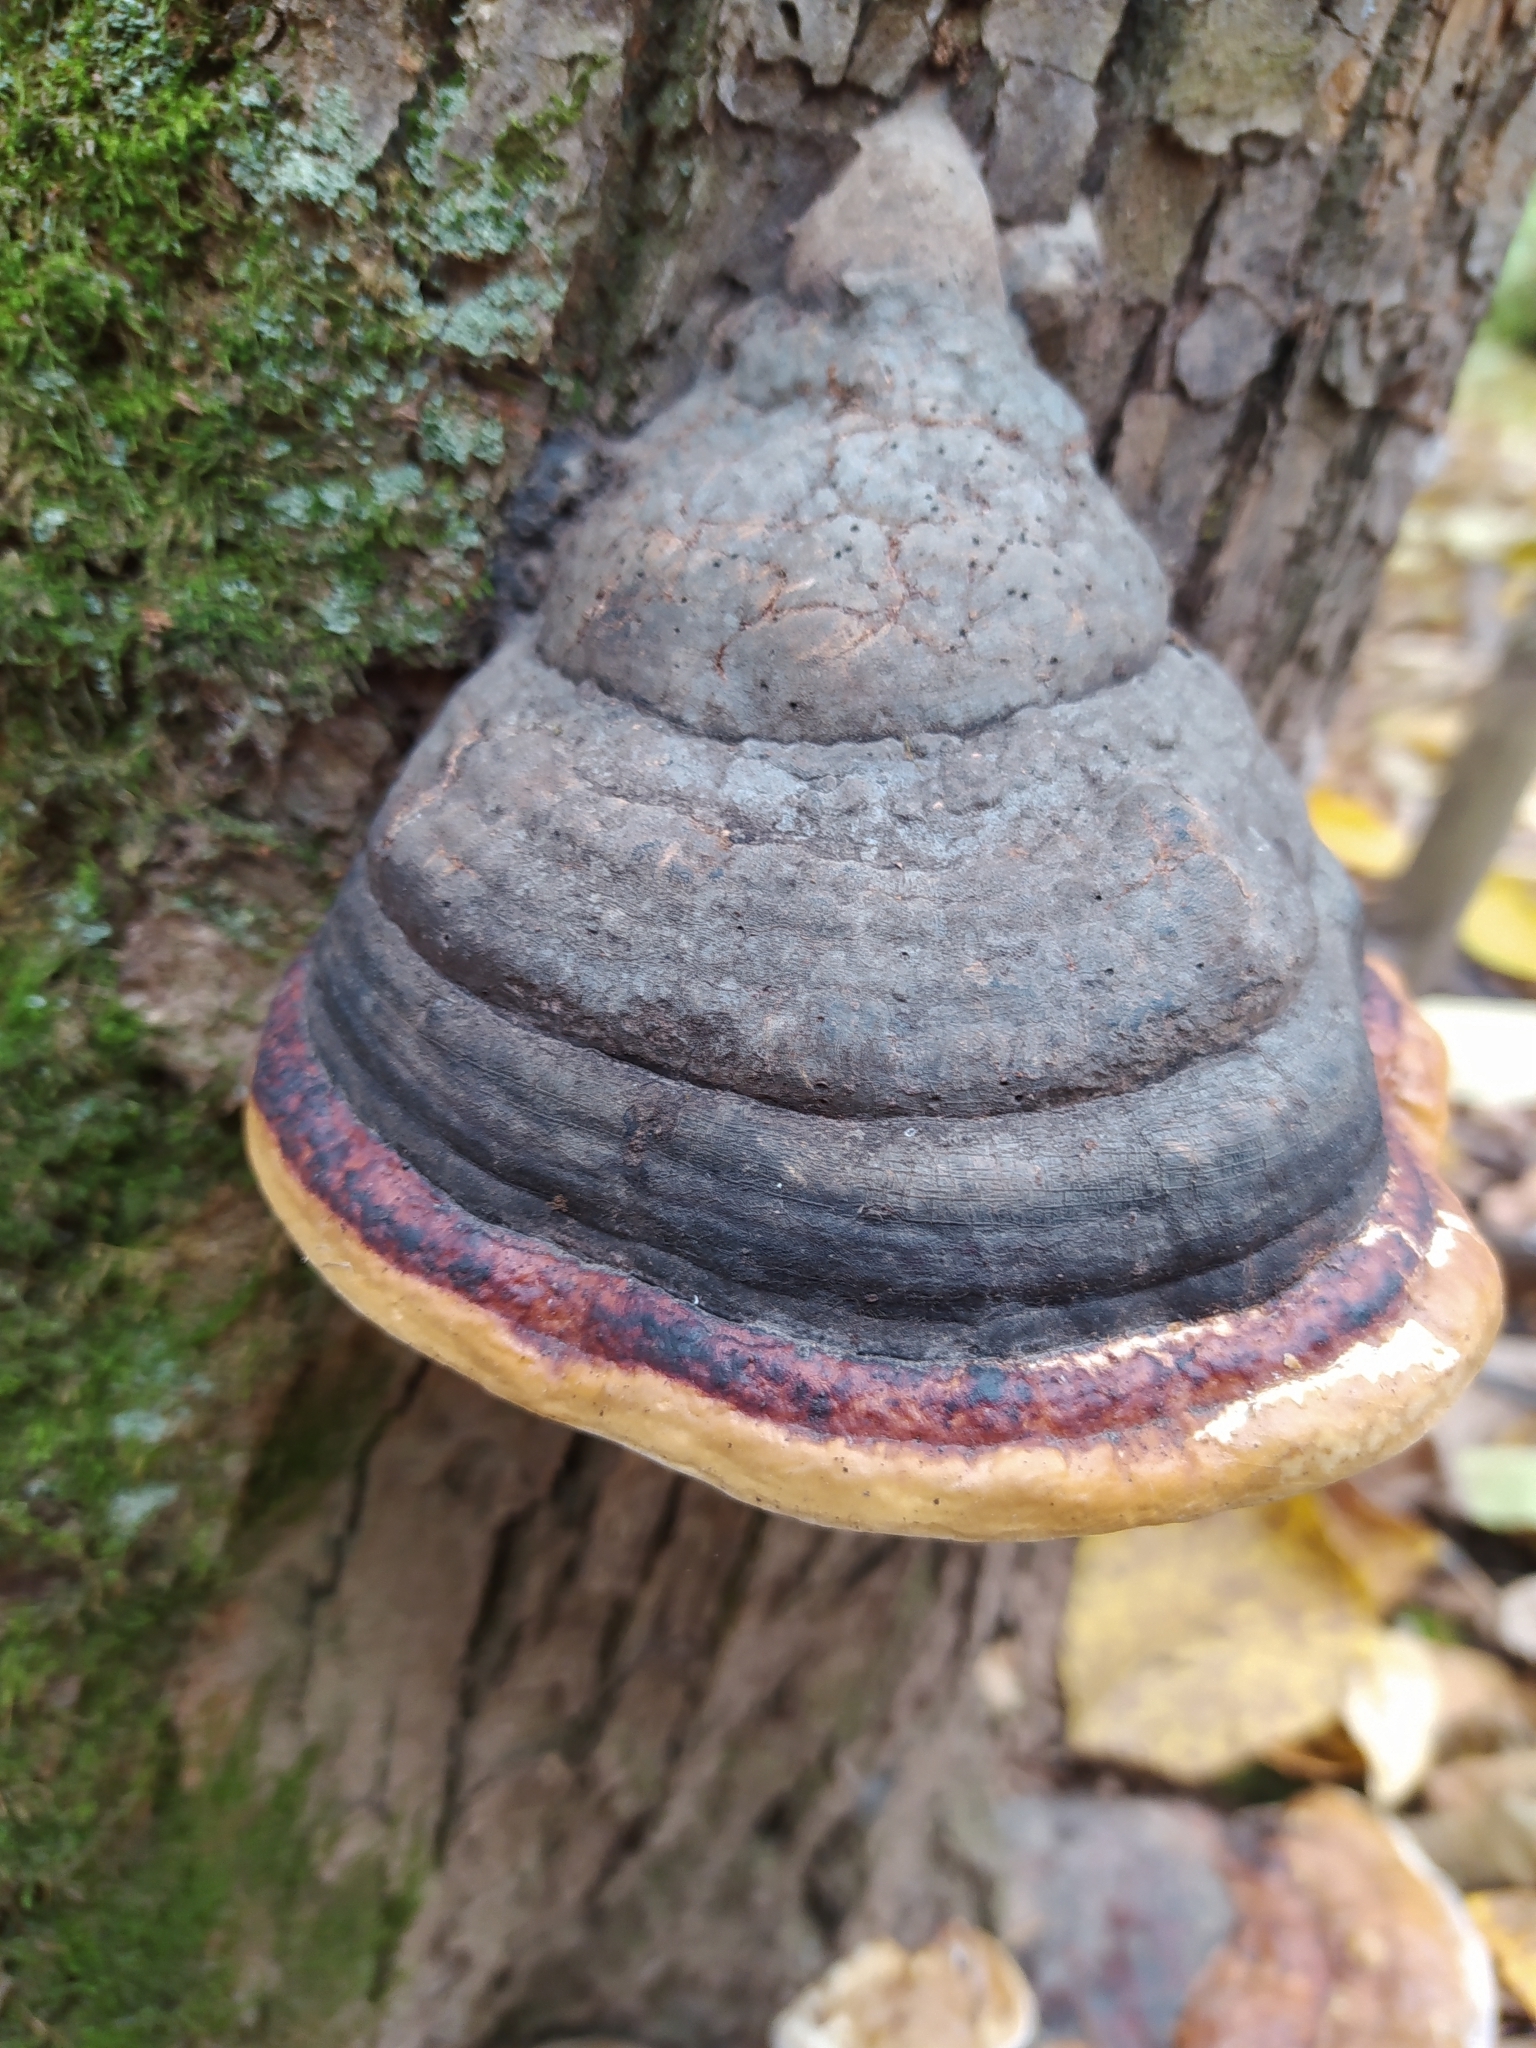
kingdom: Fungi
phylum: Basidiomycota
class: Agaricomycetes
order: Polyporales
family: Fomitopsidaceae
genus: Fomitopsis
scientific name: Fomitopsis pinicola
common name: Red-belted bracket
